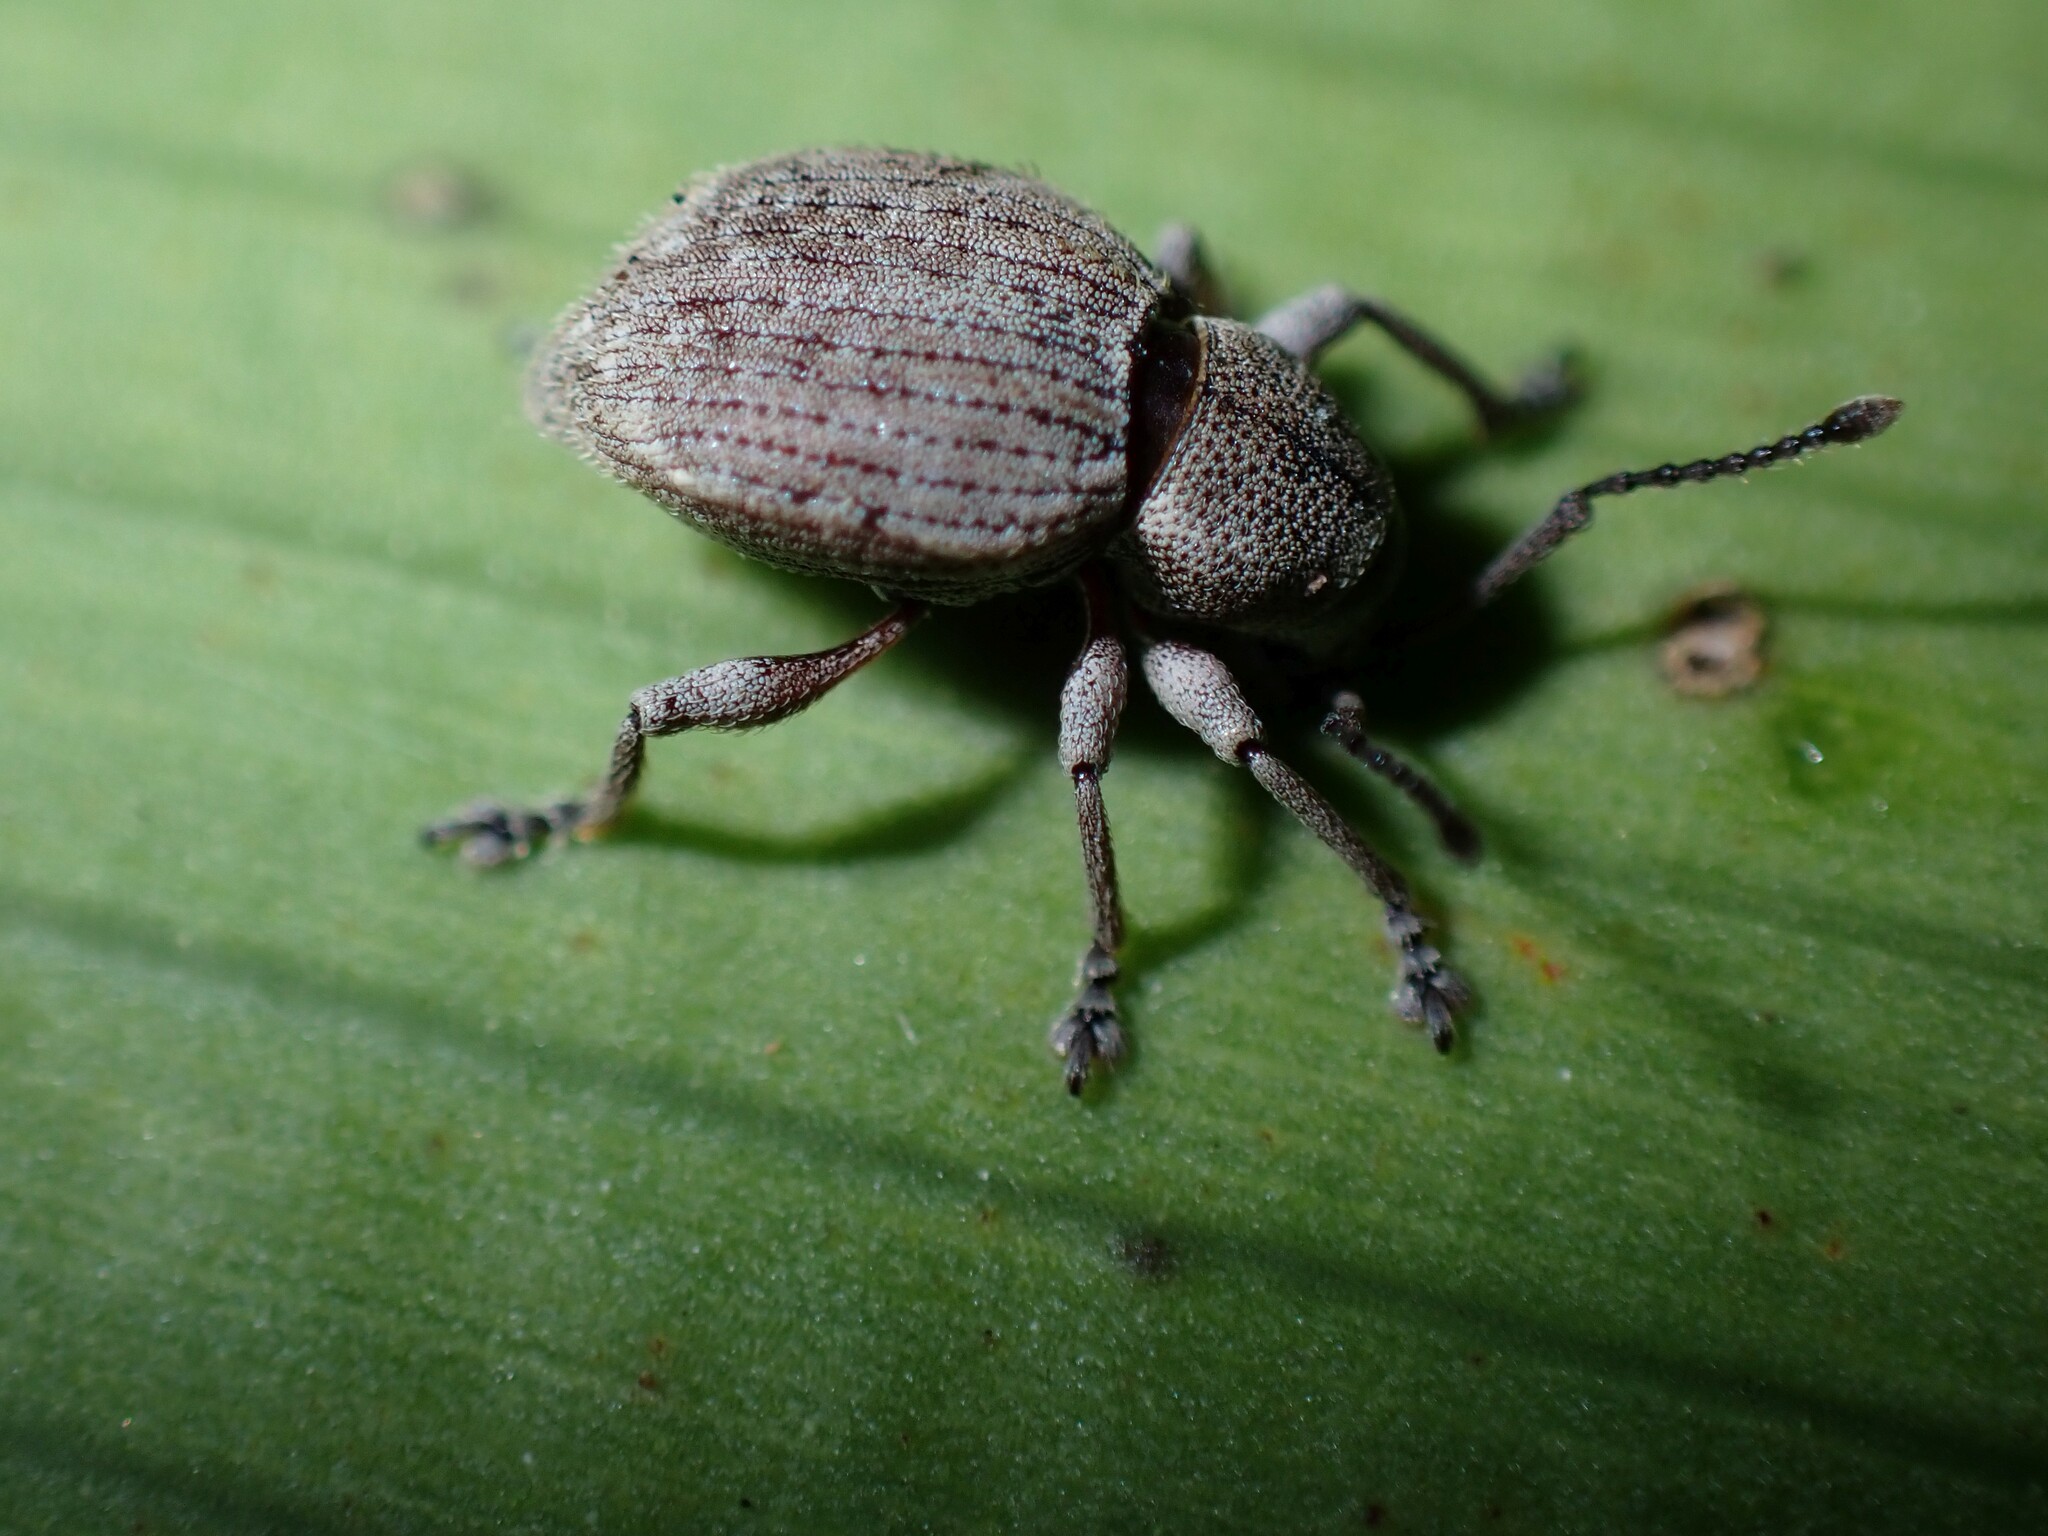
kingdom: Animalia
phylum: Arthropoda
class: Insecta
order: Coleoptera
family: Curculionidae
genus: Platysimus
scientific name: Platysimus septentrionalis
